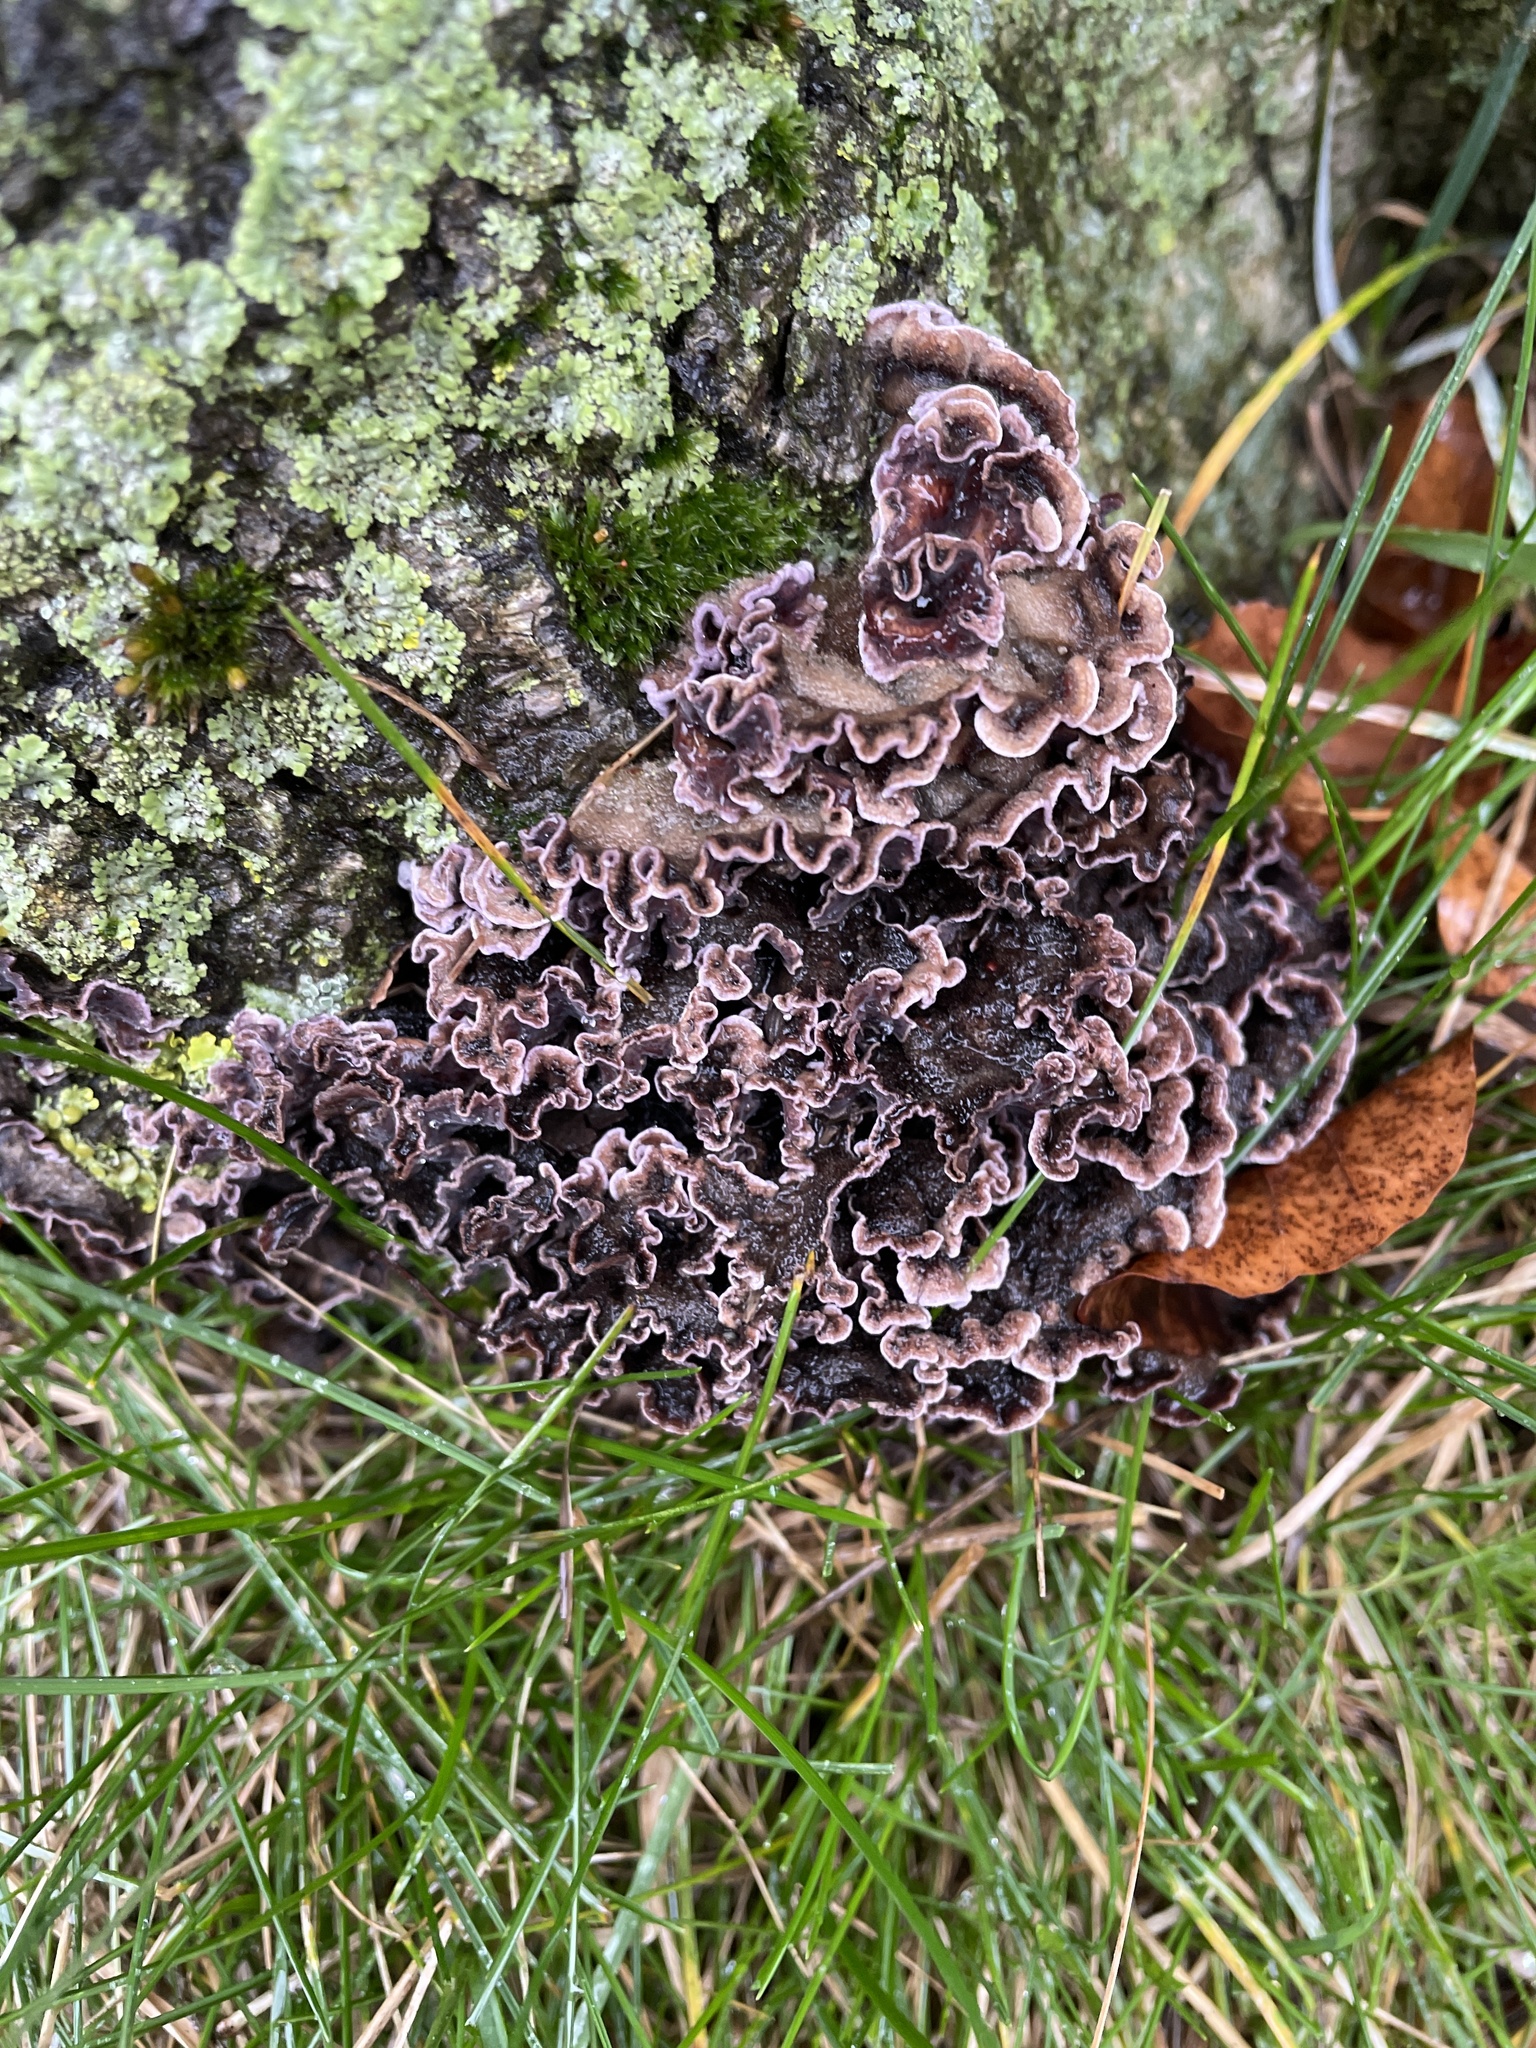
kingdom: Fungi
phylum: Basidiomycota
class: Agaricomycetes
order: Agaricales
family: Cyphellaceae
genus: Chondrostereum
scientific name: Chondrostereum purpureum
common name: Silver leaf disease
